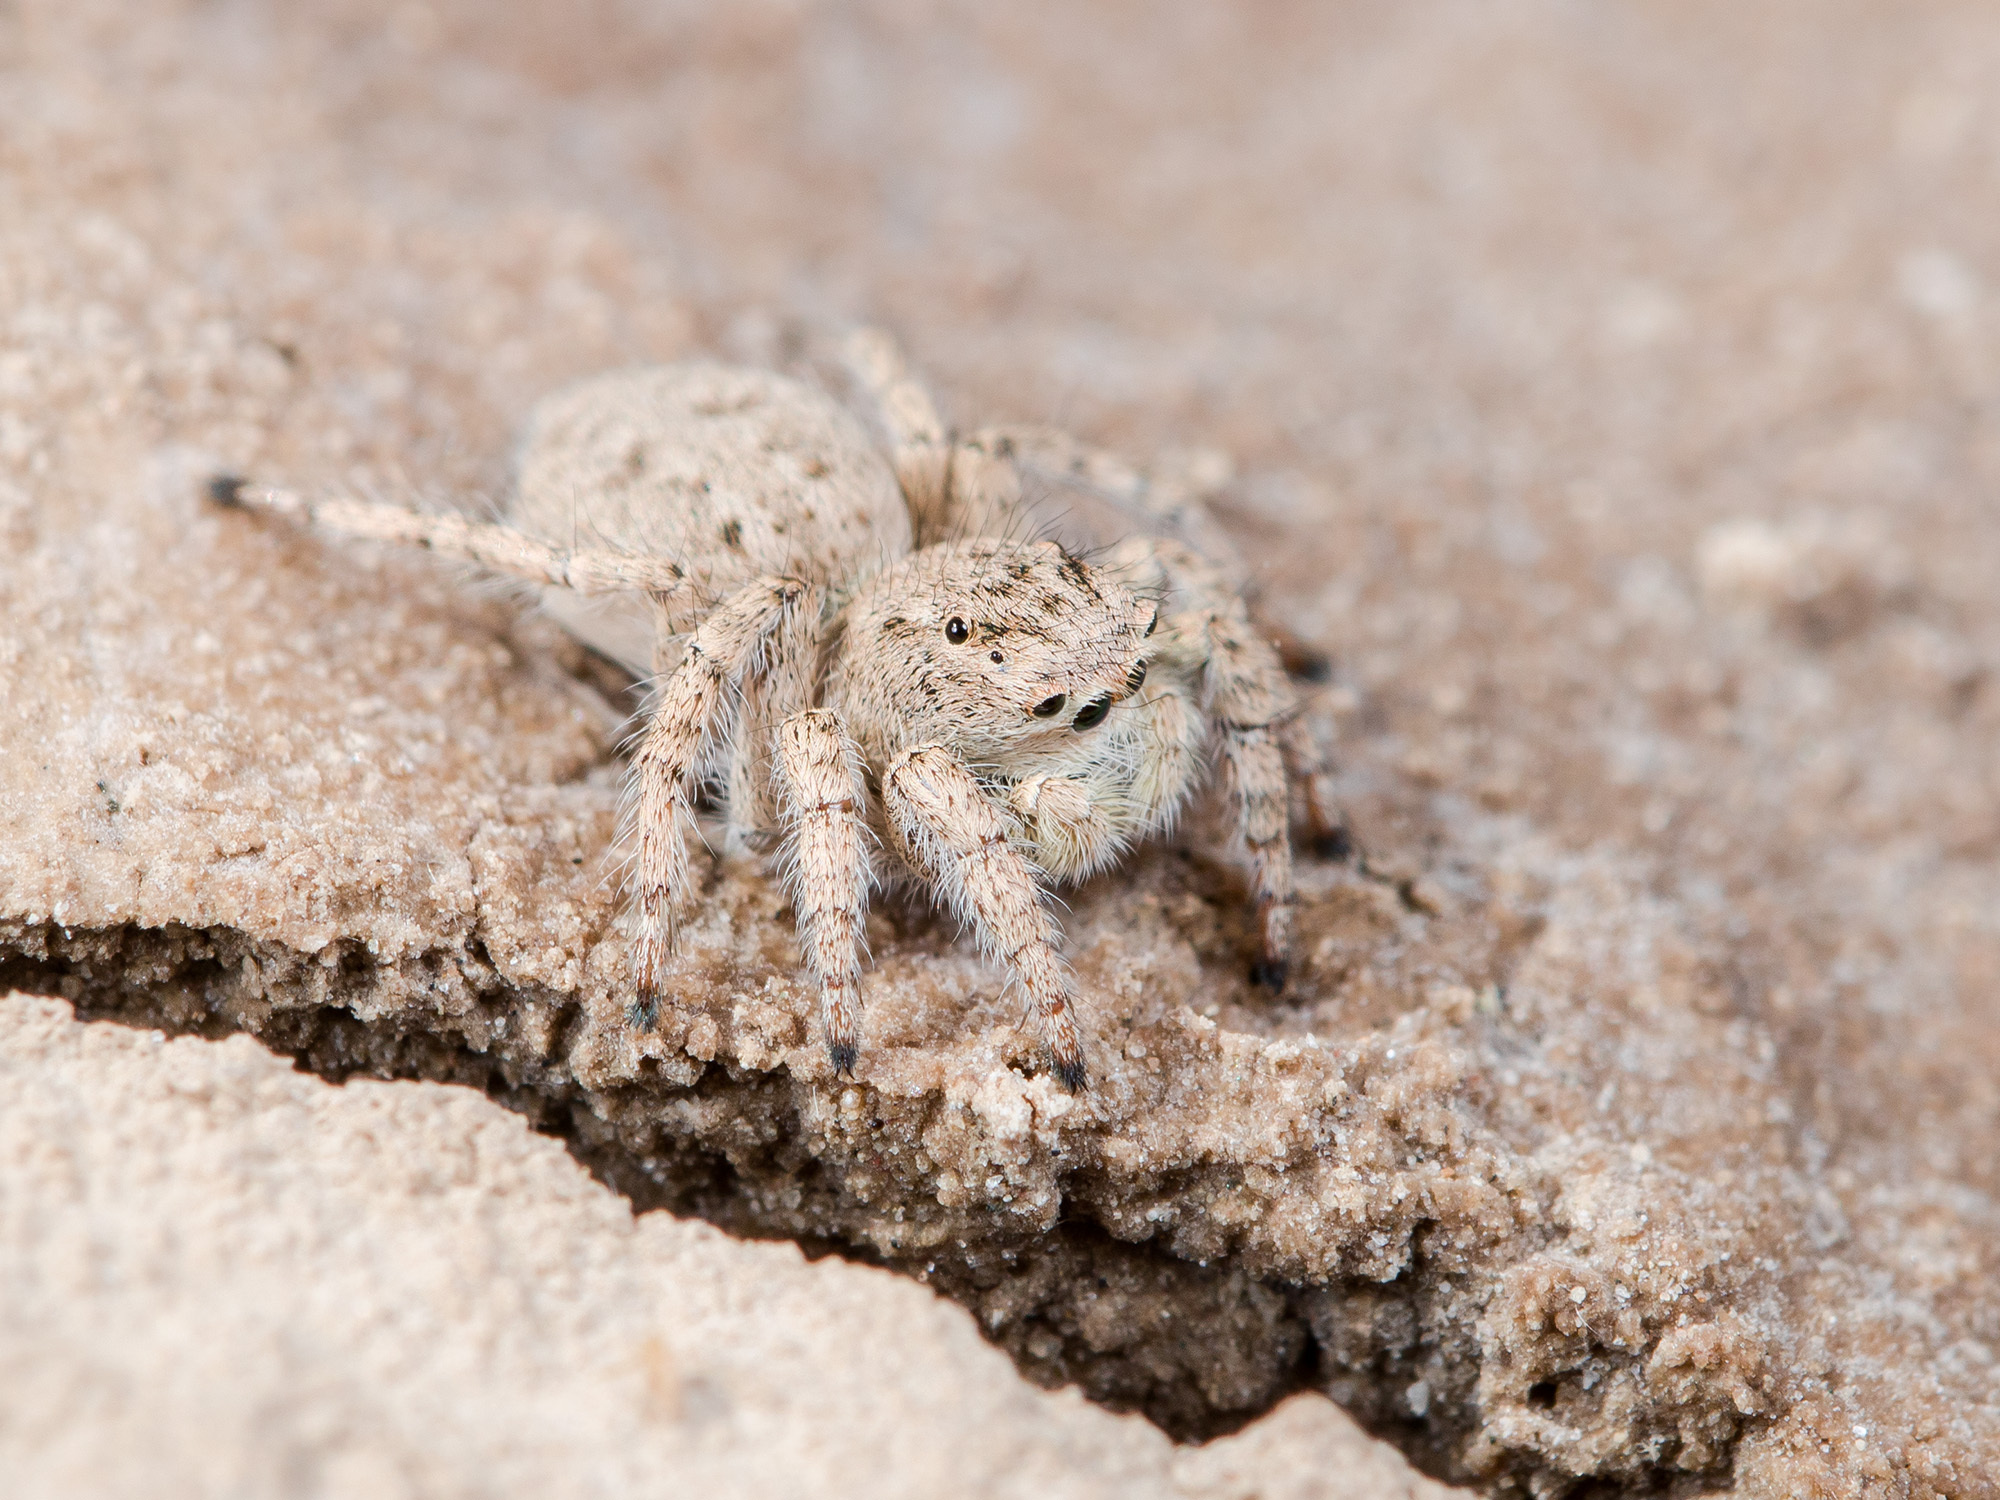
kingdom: Animalia
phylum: Arthropoda
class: Arachnida
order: Araneae
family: Salticidae
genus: Aelurillus
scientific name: Aelurillus concolor
